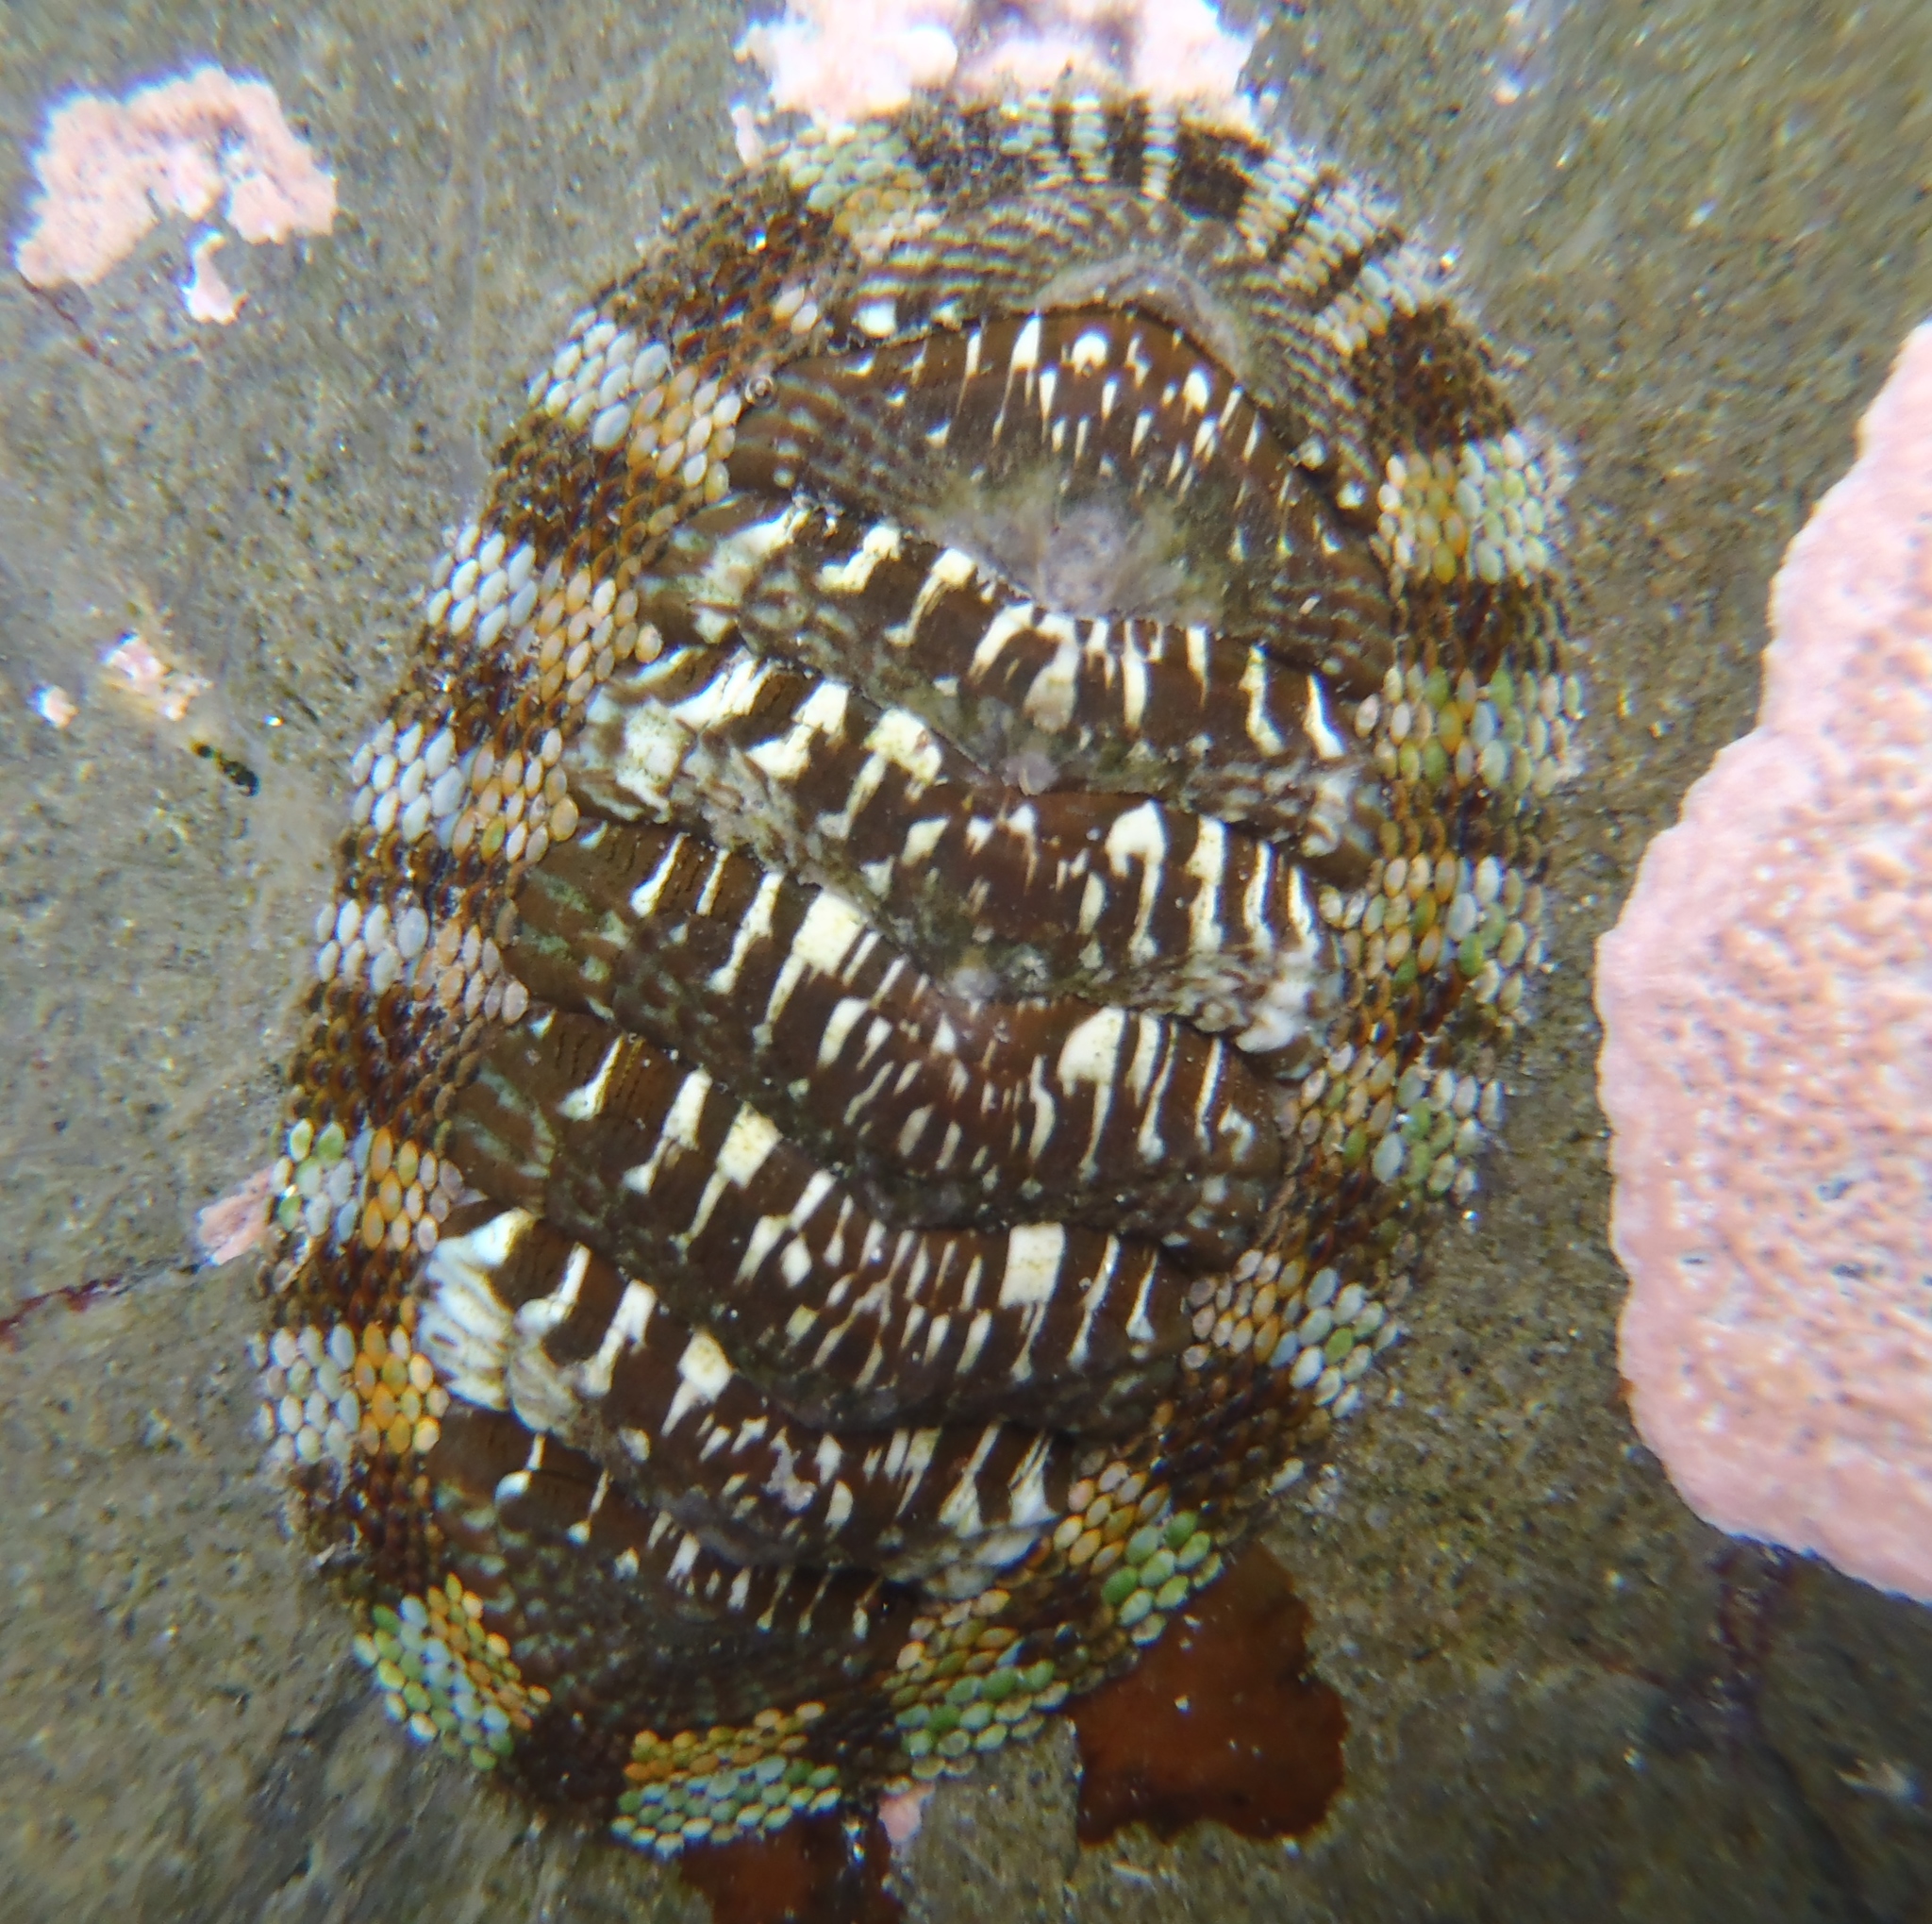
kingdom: Animalia
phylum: Mollusca
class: Polyplacophora
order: Chitonida
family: Chitonidae
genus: Sypharochiton
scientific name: Sypharochiton sinclairi
